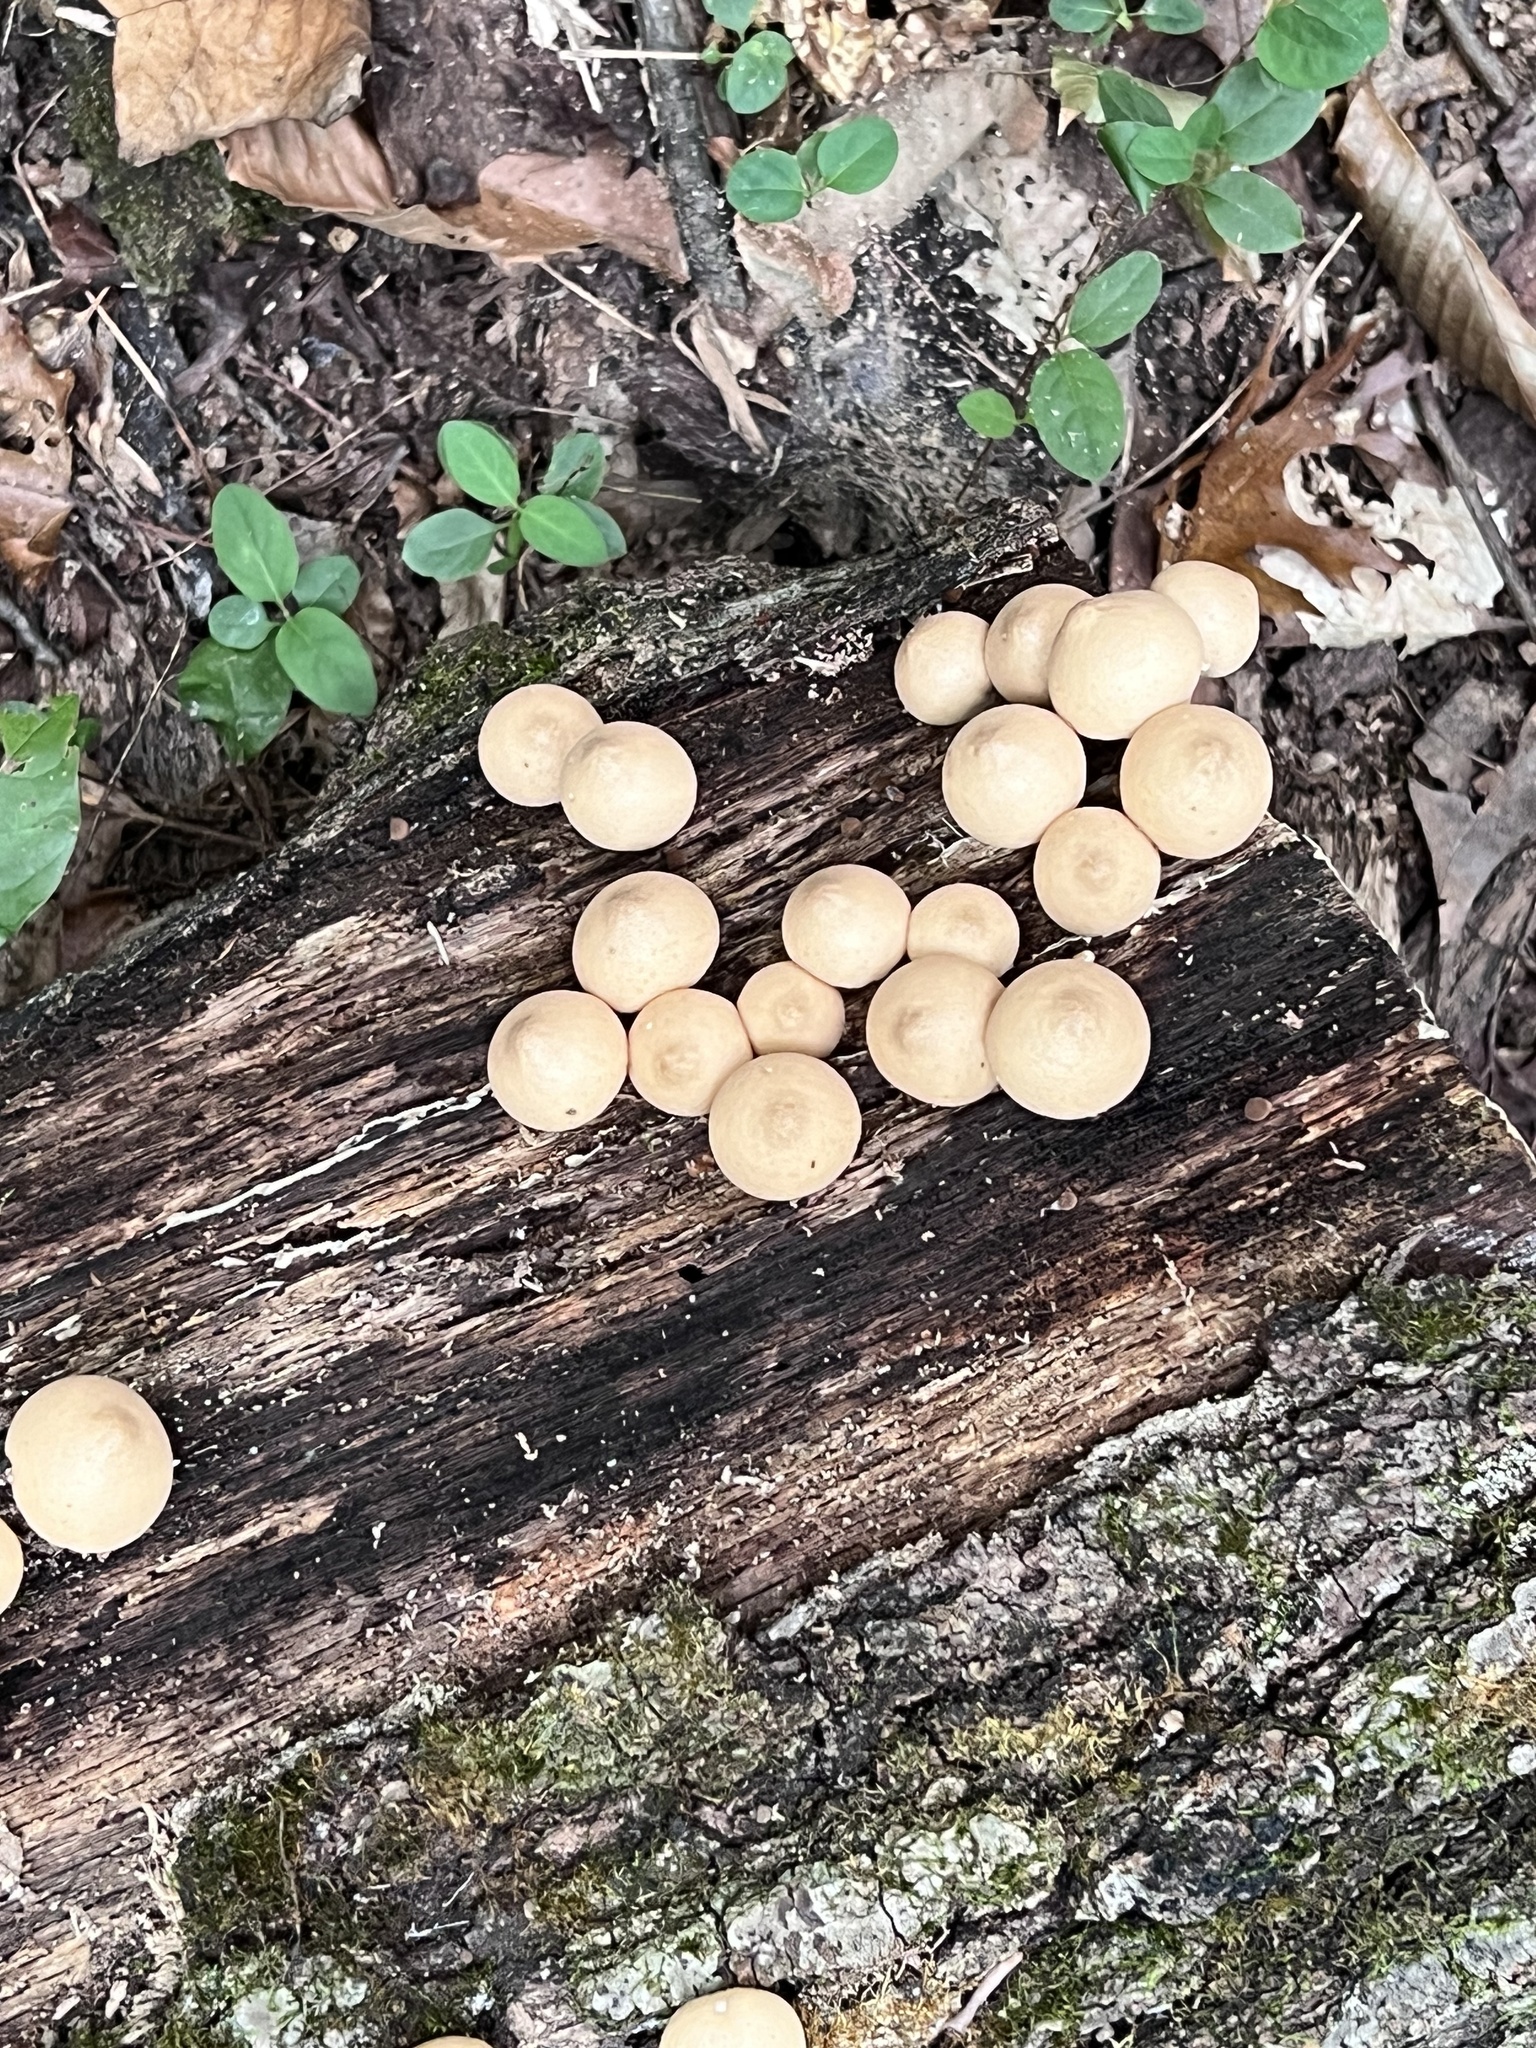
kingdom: Fungi
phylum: Basidiomycota
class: Agaricomycetes
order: Agaricales
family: Lycoperdaceae
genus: Apioperdon
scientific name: Apioperdon pyriforme
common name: Pear-shaped puffball
